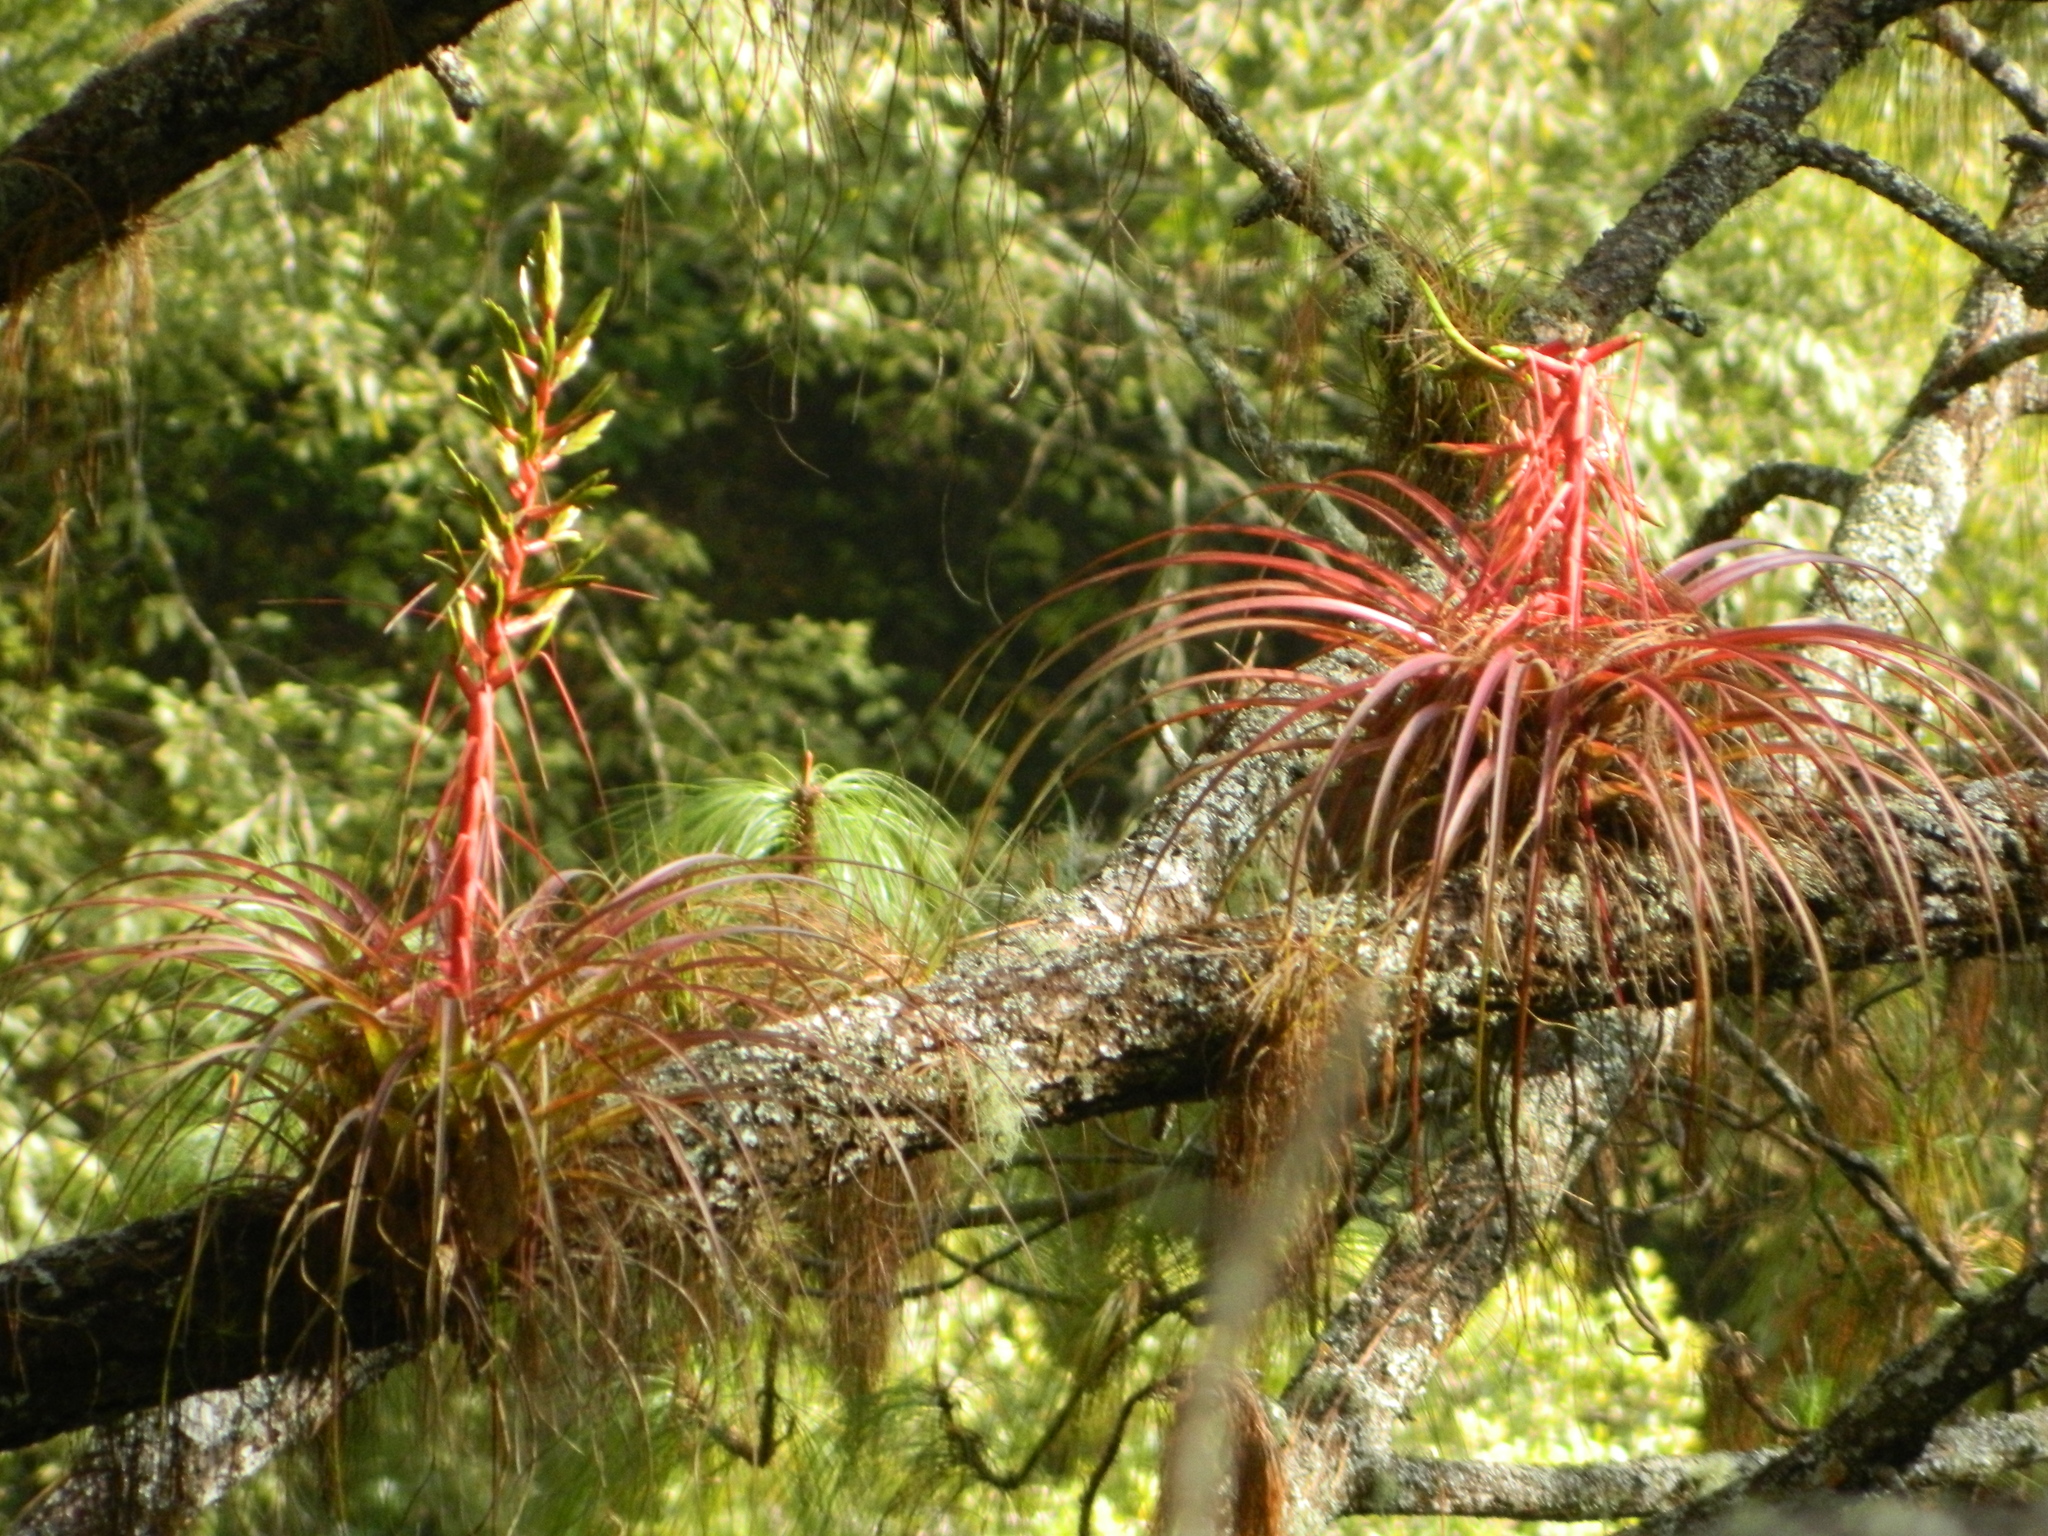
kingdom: Plantae
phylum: Tracheophyta
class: Liliopsida
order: Poales
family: Bromeliaceae
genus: Tillandsia
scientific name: Tillandsia calothyrsus
